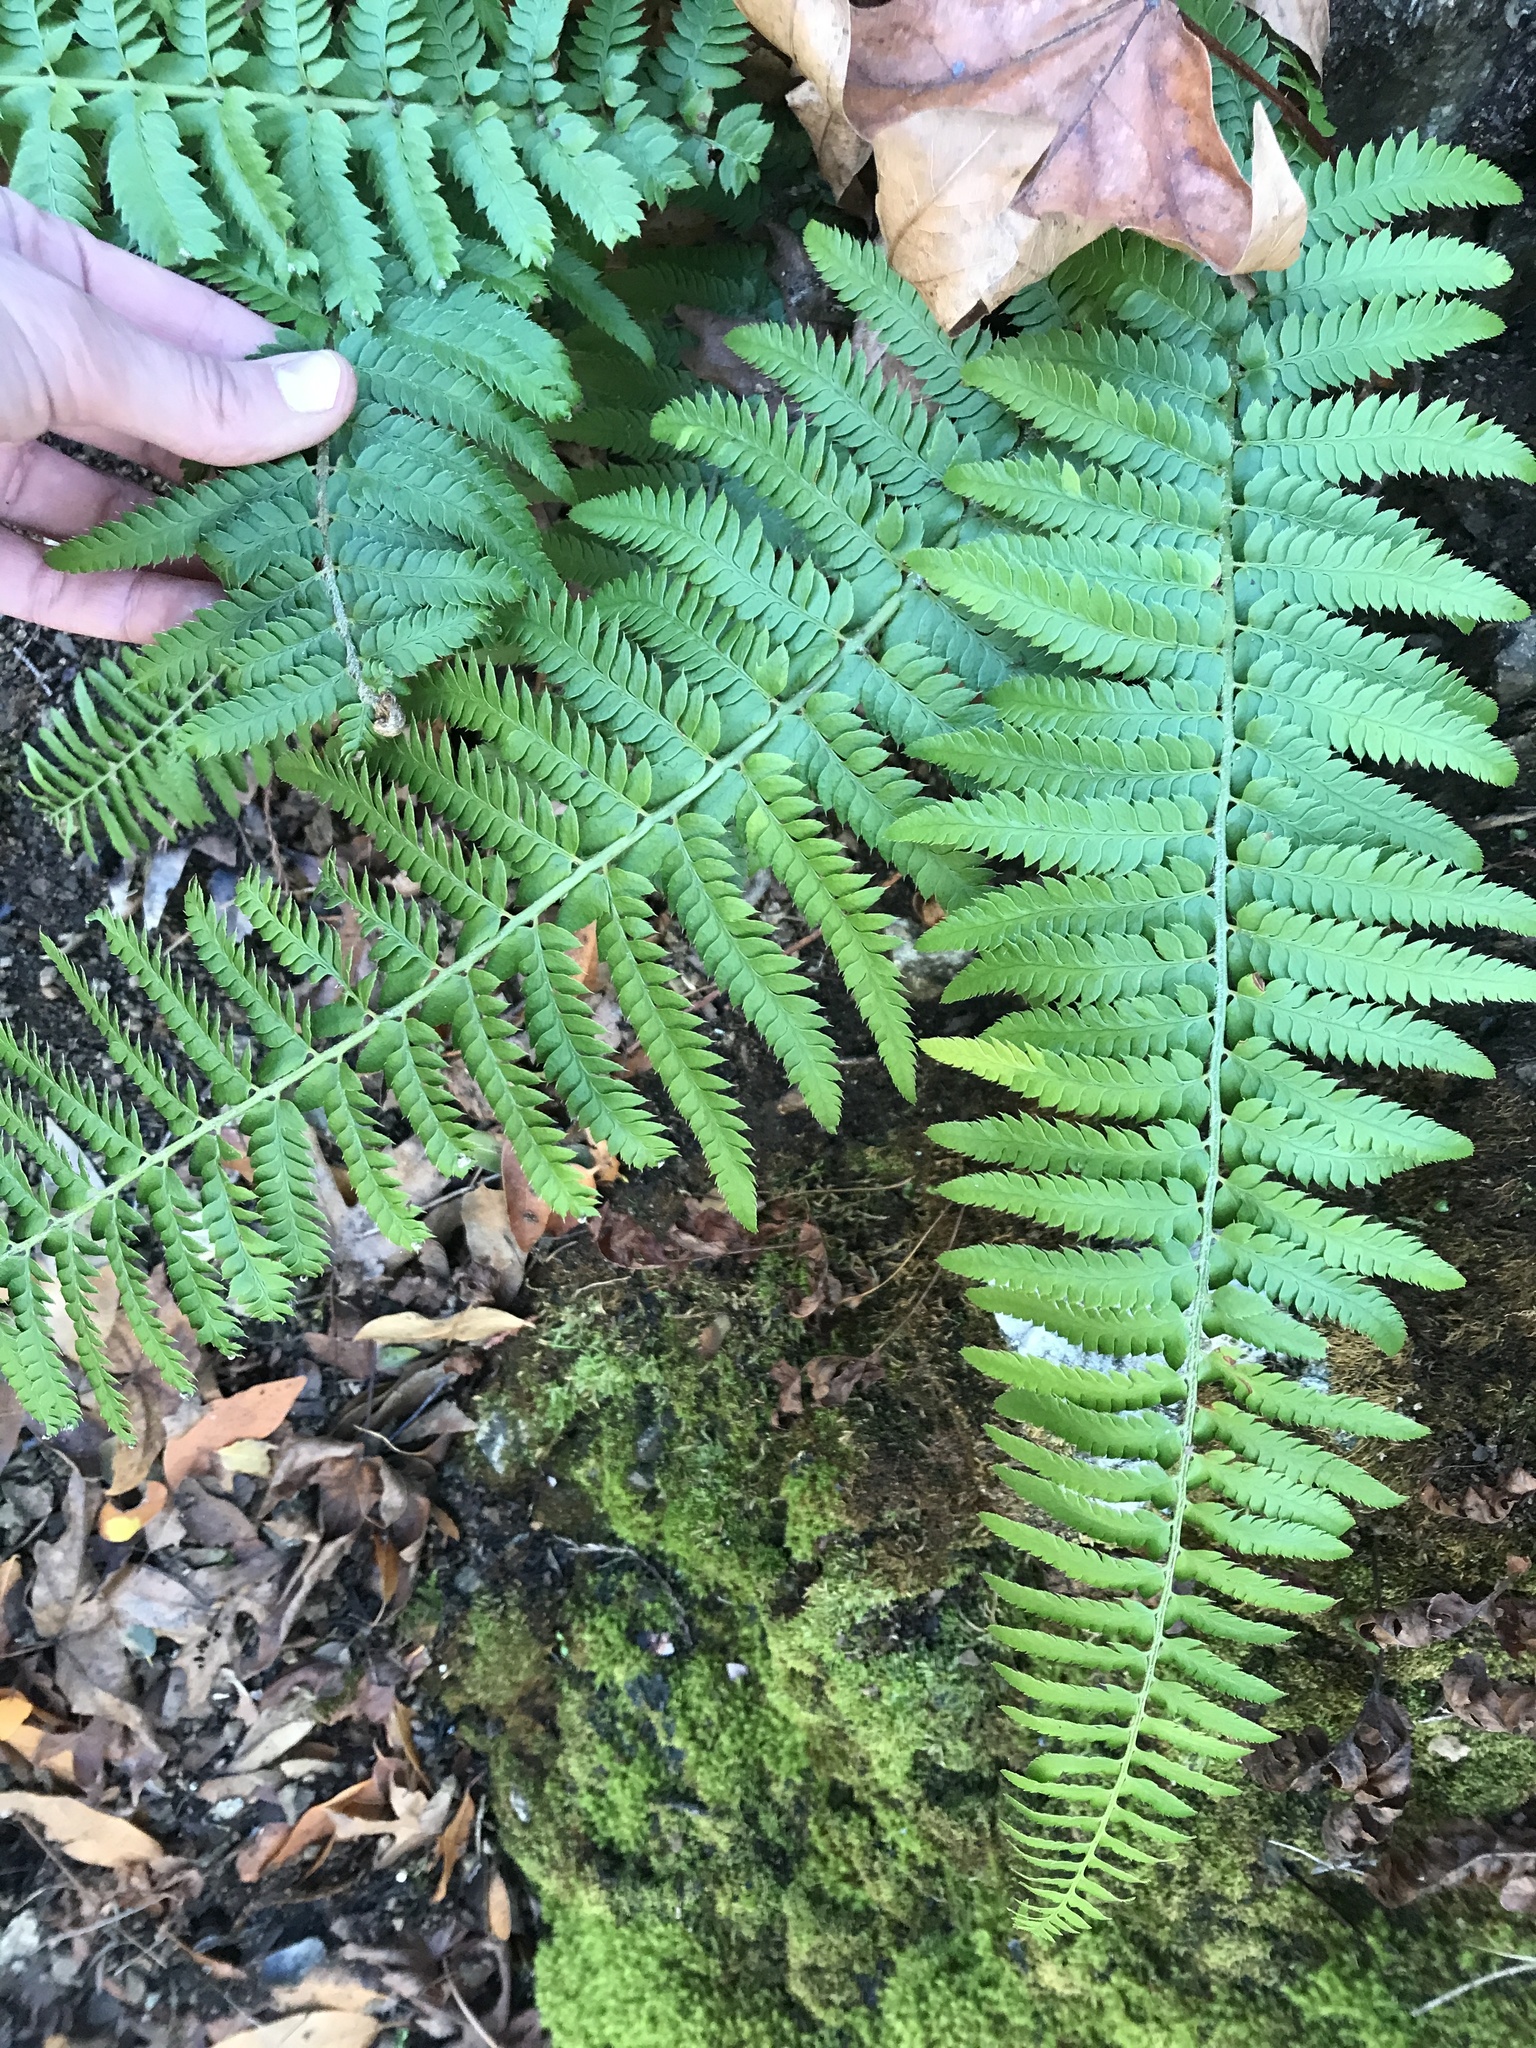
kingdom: Plantae
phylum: Tracheophyta
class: Polypodiopsida
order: Polypodiales
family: Dryopteridaceae
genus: Polystichum
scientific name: Polystichum californicum
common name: California sword fern
